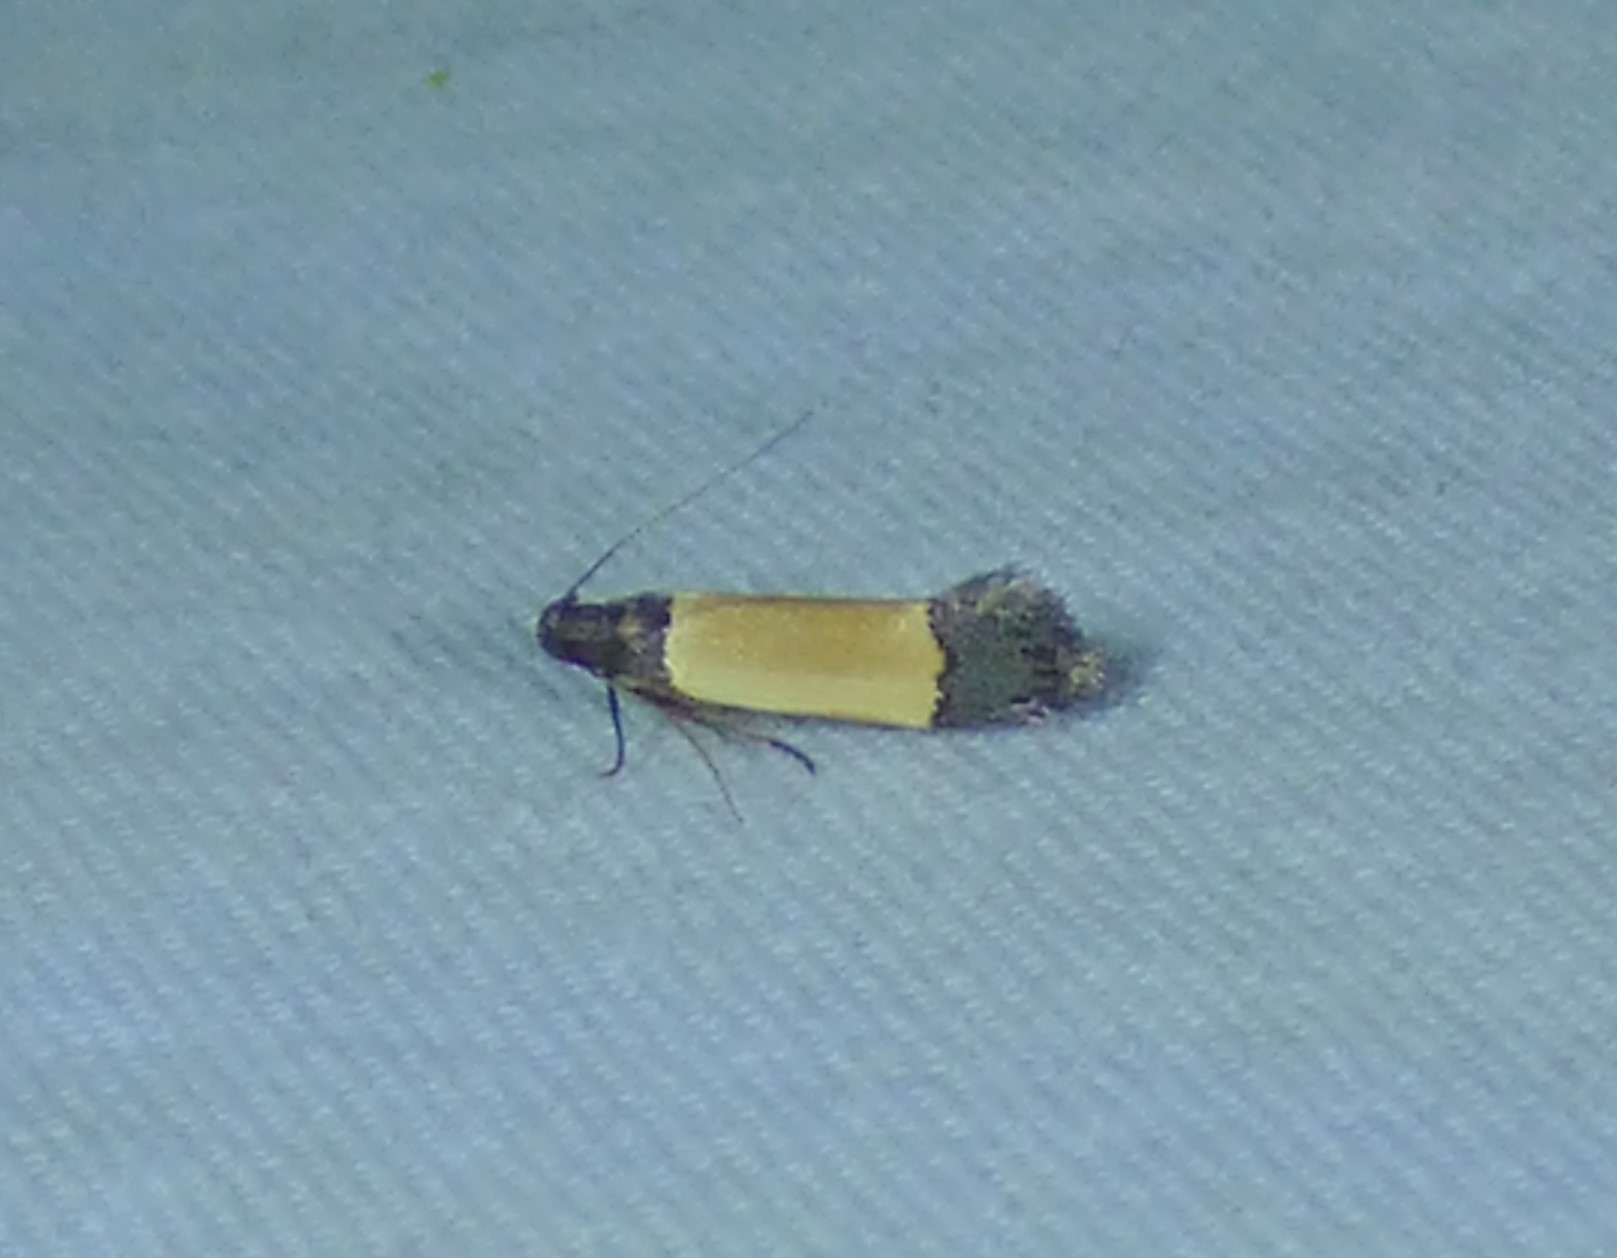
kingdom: Animalia
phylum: Arthropoda
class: Insecta
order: Lepidoptera
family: Gelechiidae
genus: Anacampsis
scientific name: Anacampsis coverdalella
